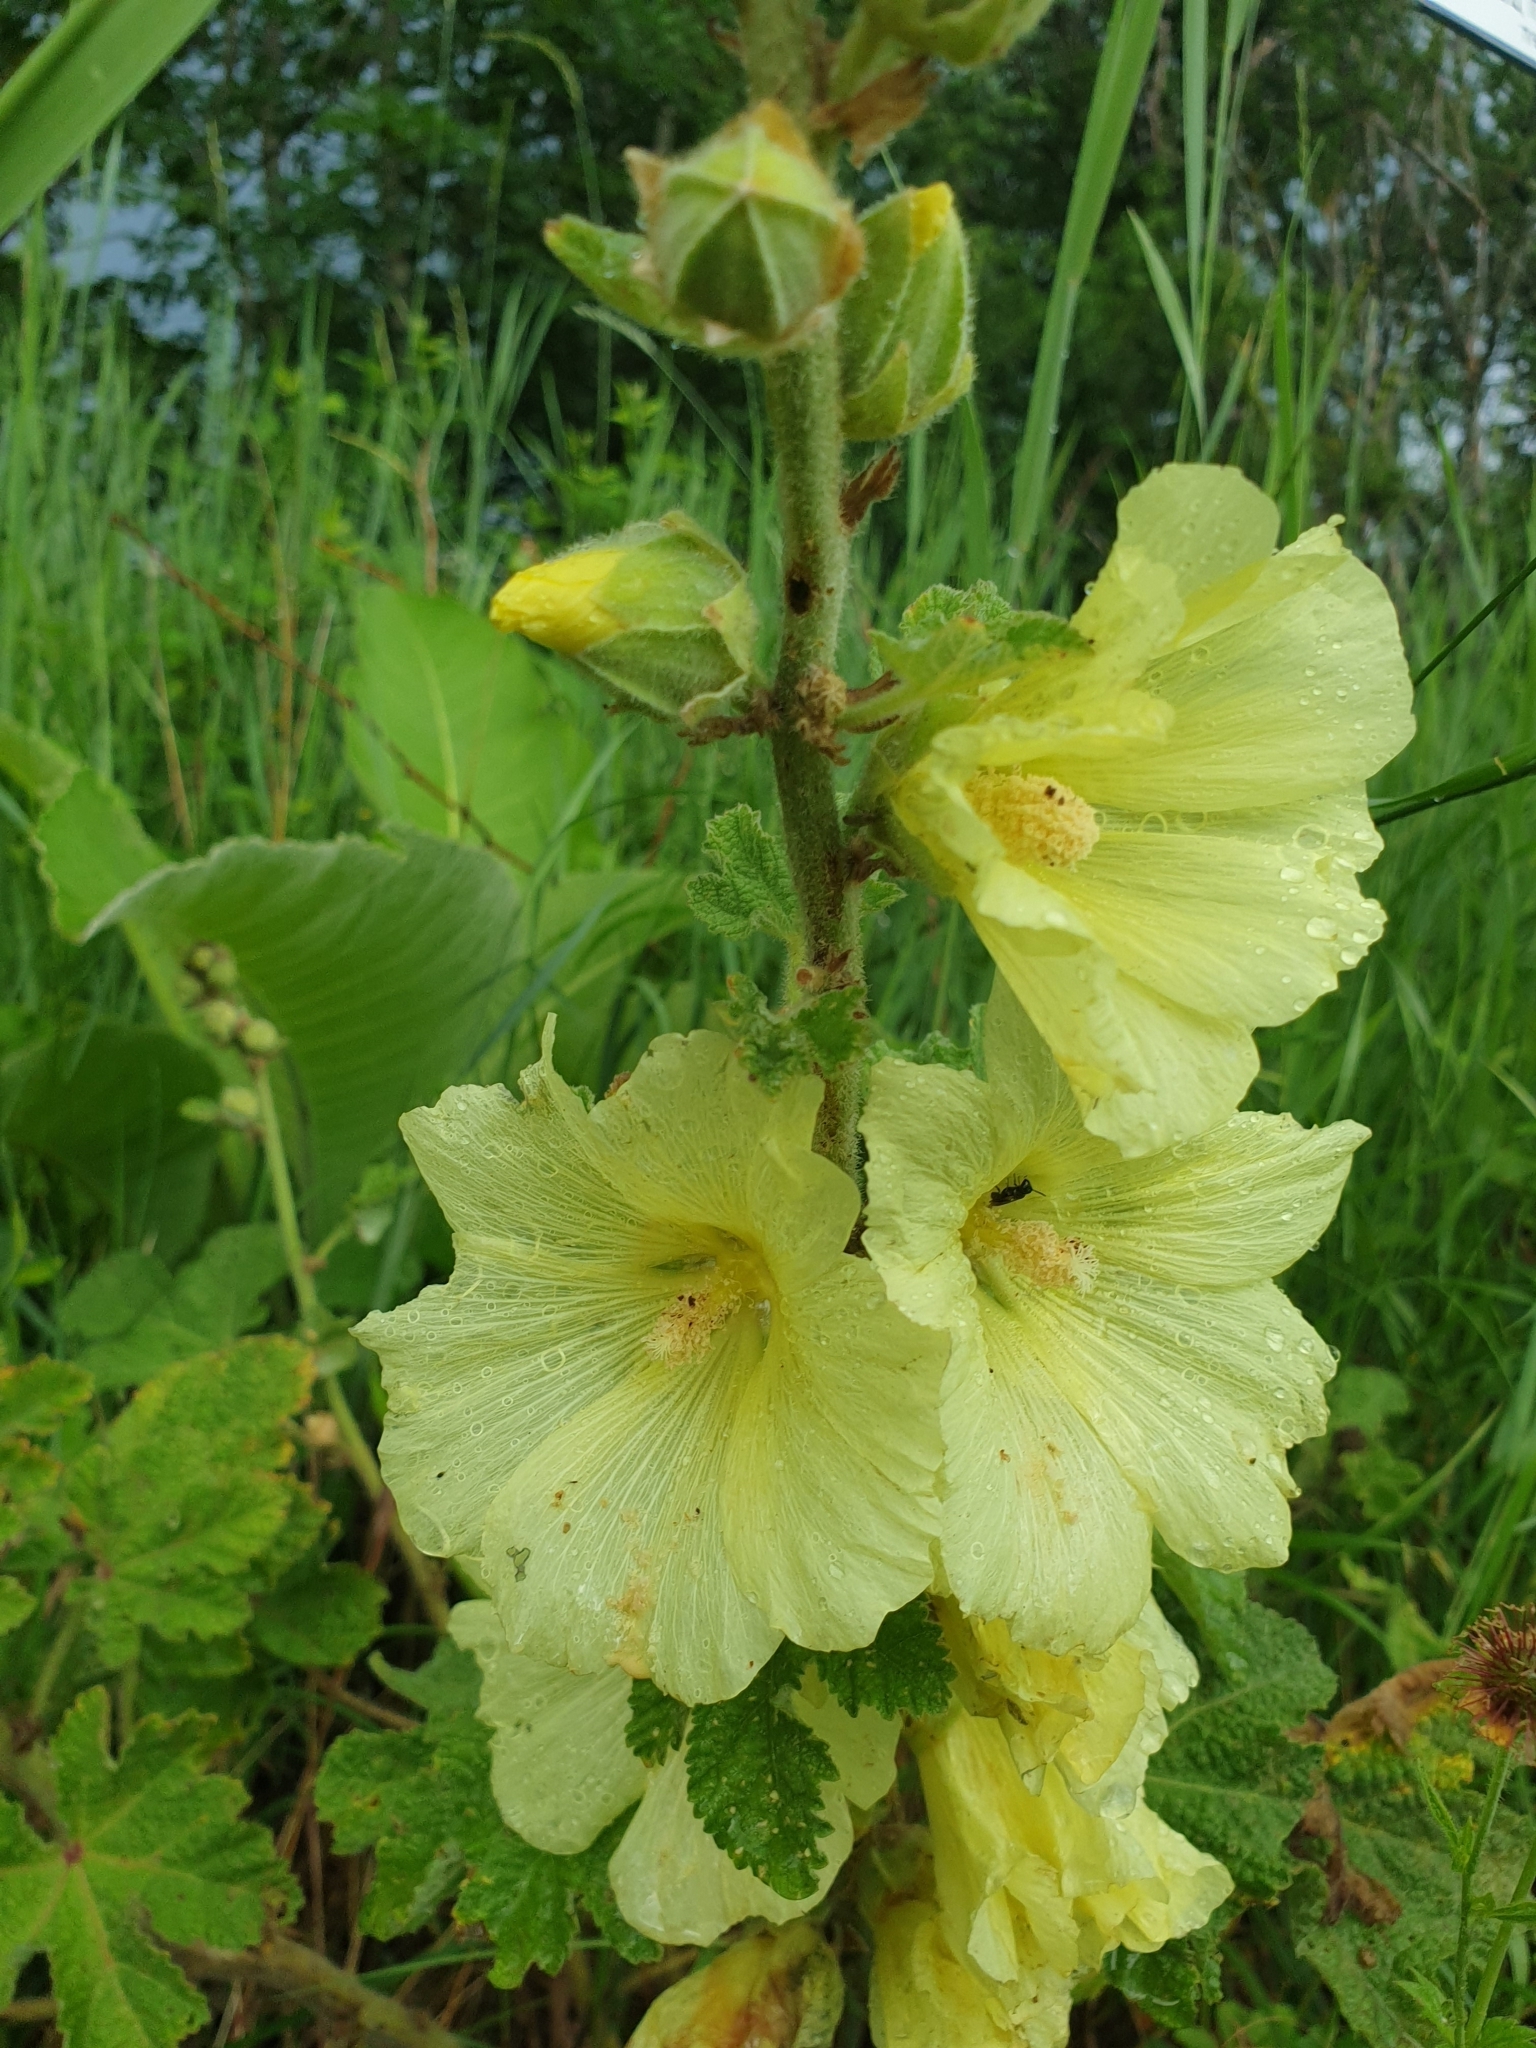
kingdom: Plantae
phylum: Tracheophyta
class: Magnoliopsida
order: Malvales
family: Malvaceae
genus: Alcea
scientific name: Alcea rugosa
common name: Russian hollyhock
